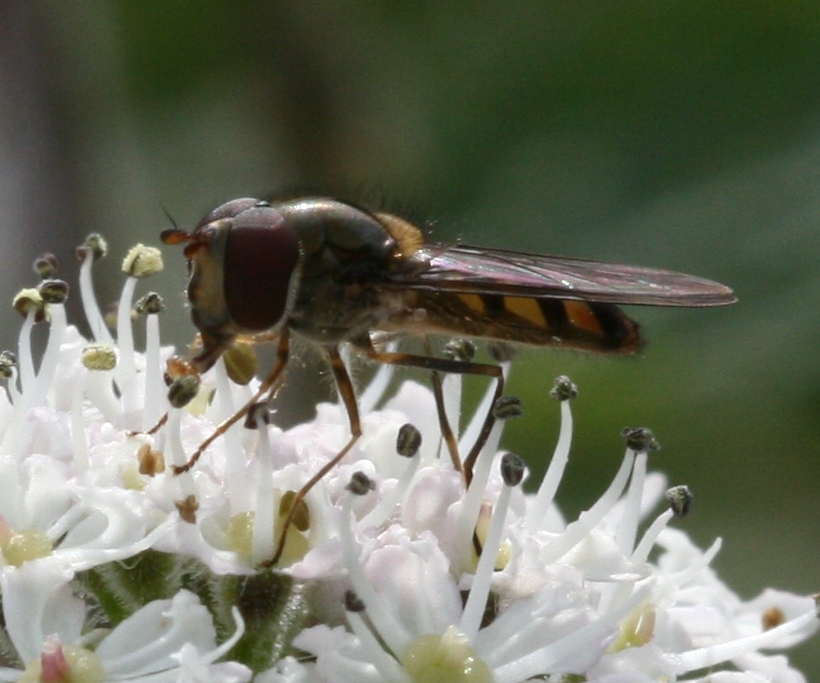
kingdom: Animalia
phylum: Arthropoda
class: Insecta
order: Diptera
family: Syrphidae
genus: Meliscaeva
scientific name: Meliscaeva auricollis
